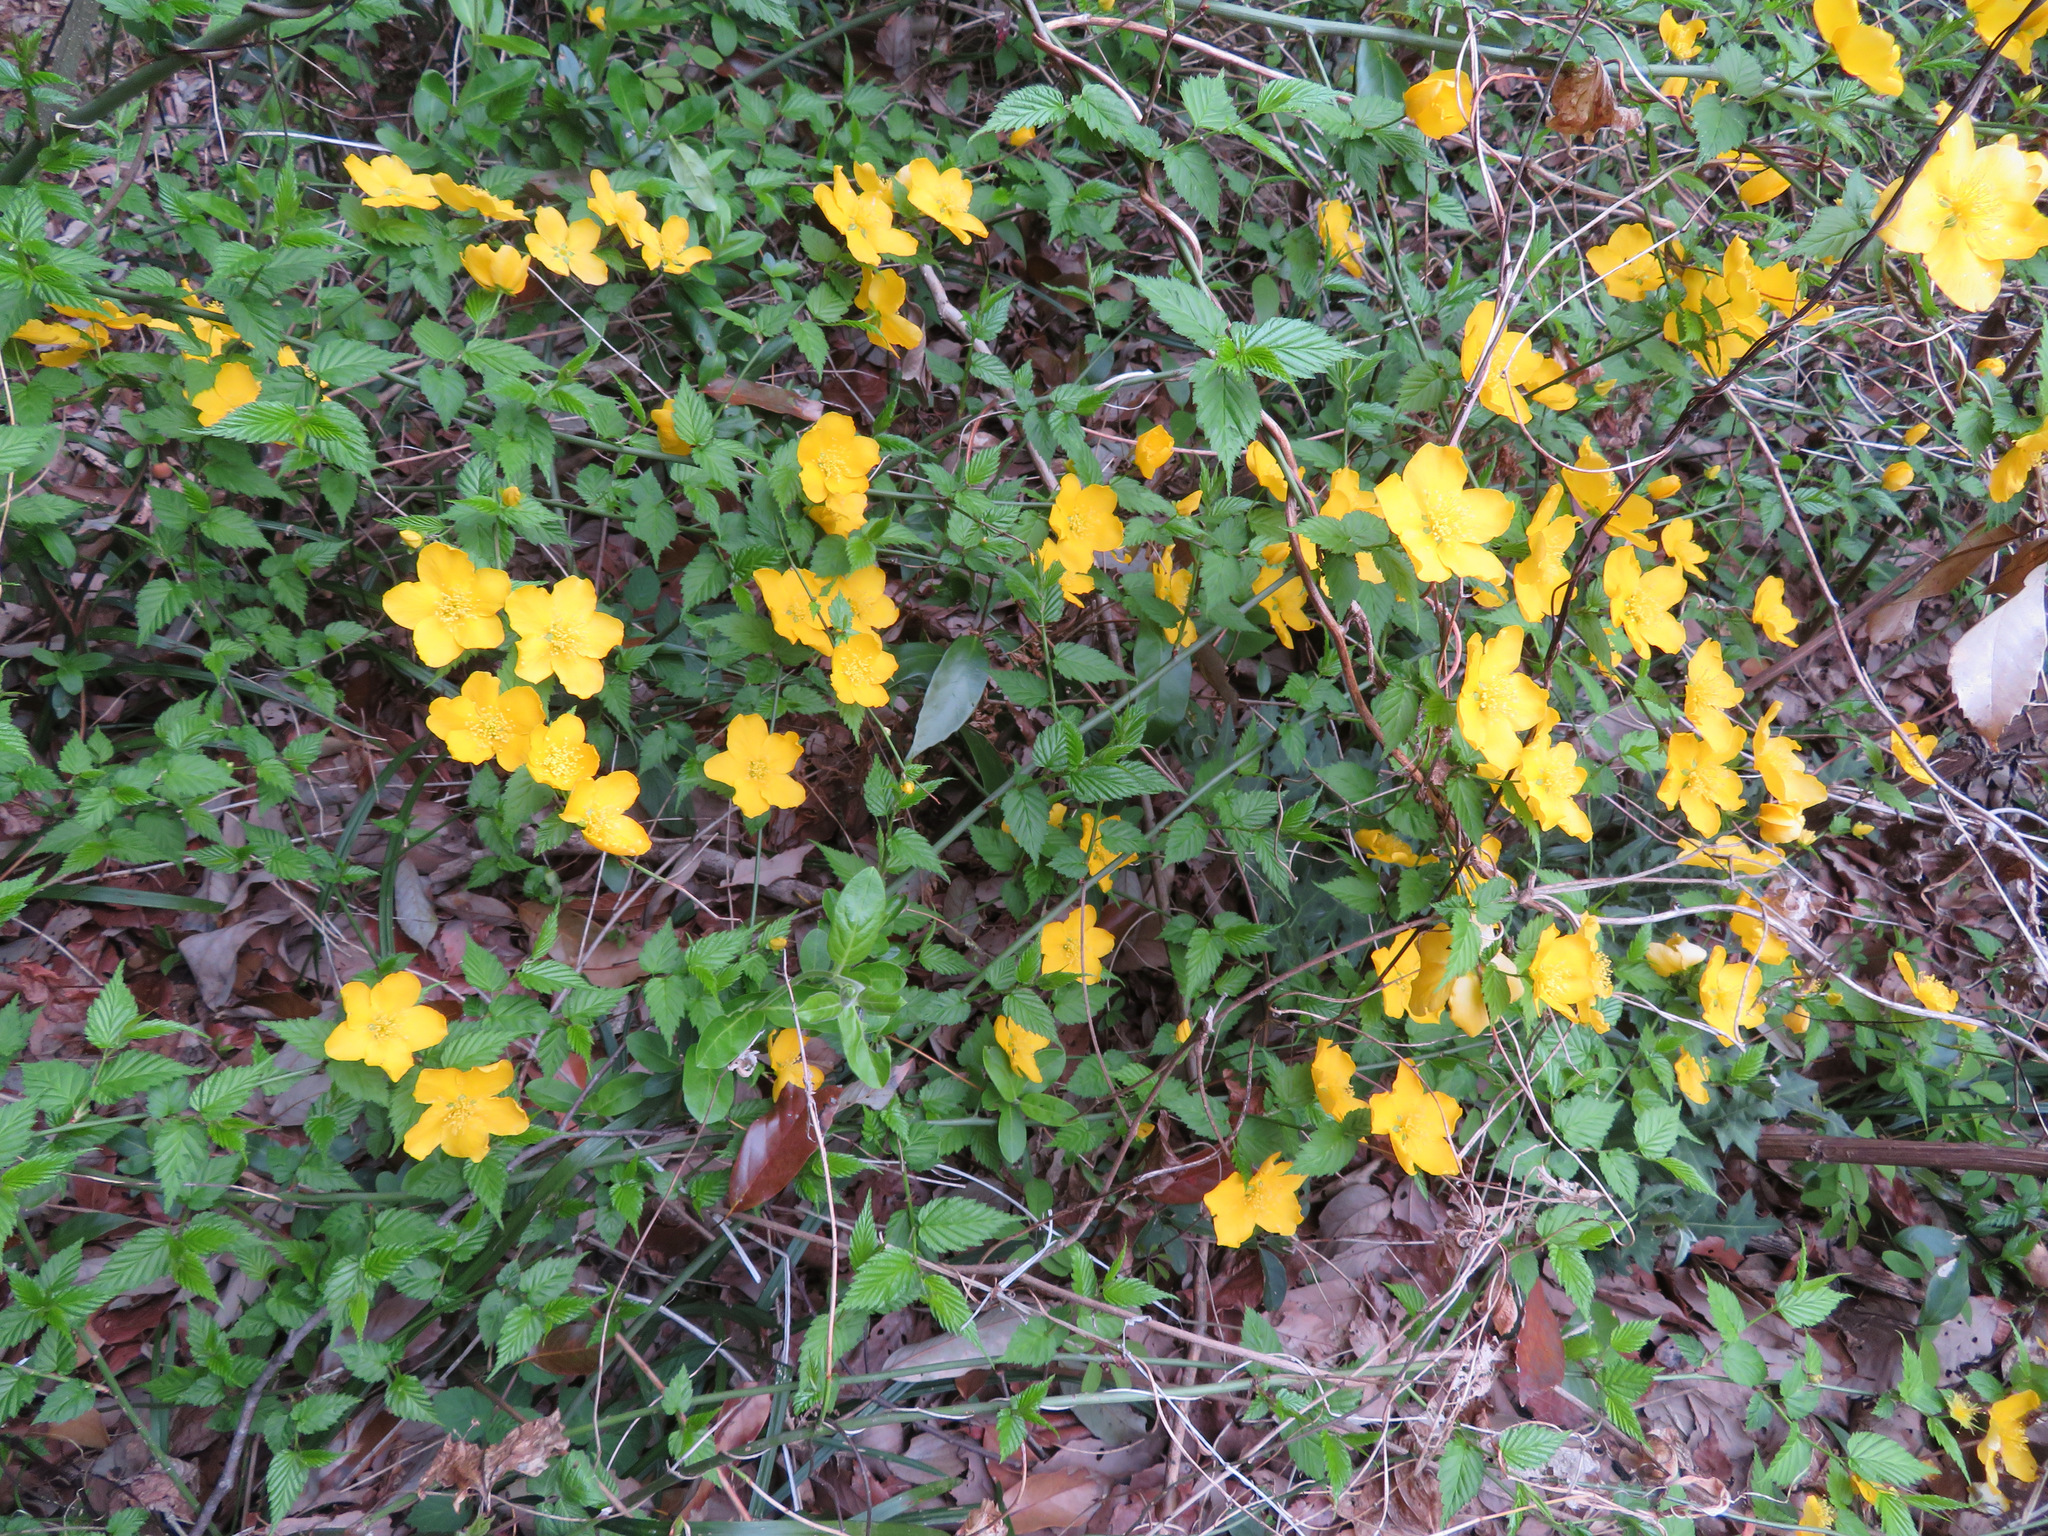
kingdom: Plantae
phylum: Tracheophyta
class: Magnoliopsida
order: Rosales
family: Rosaceae
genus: Kerria
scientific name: Kerria japonica
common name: Japanese kerria
